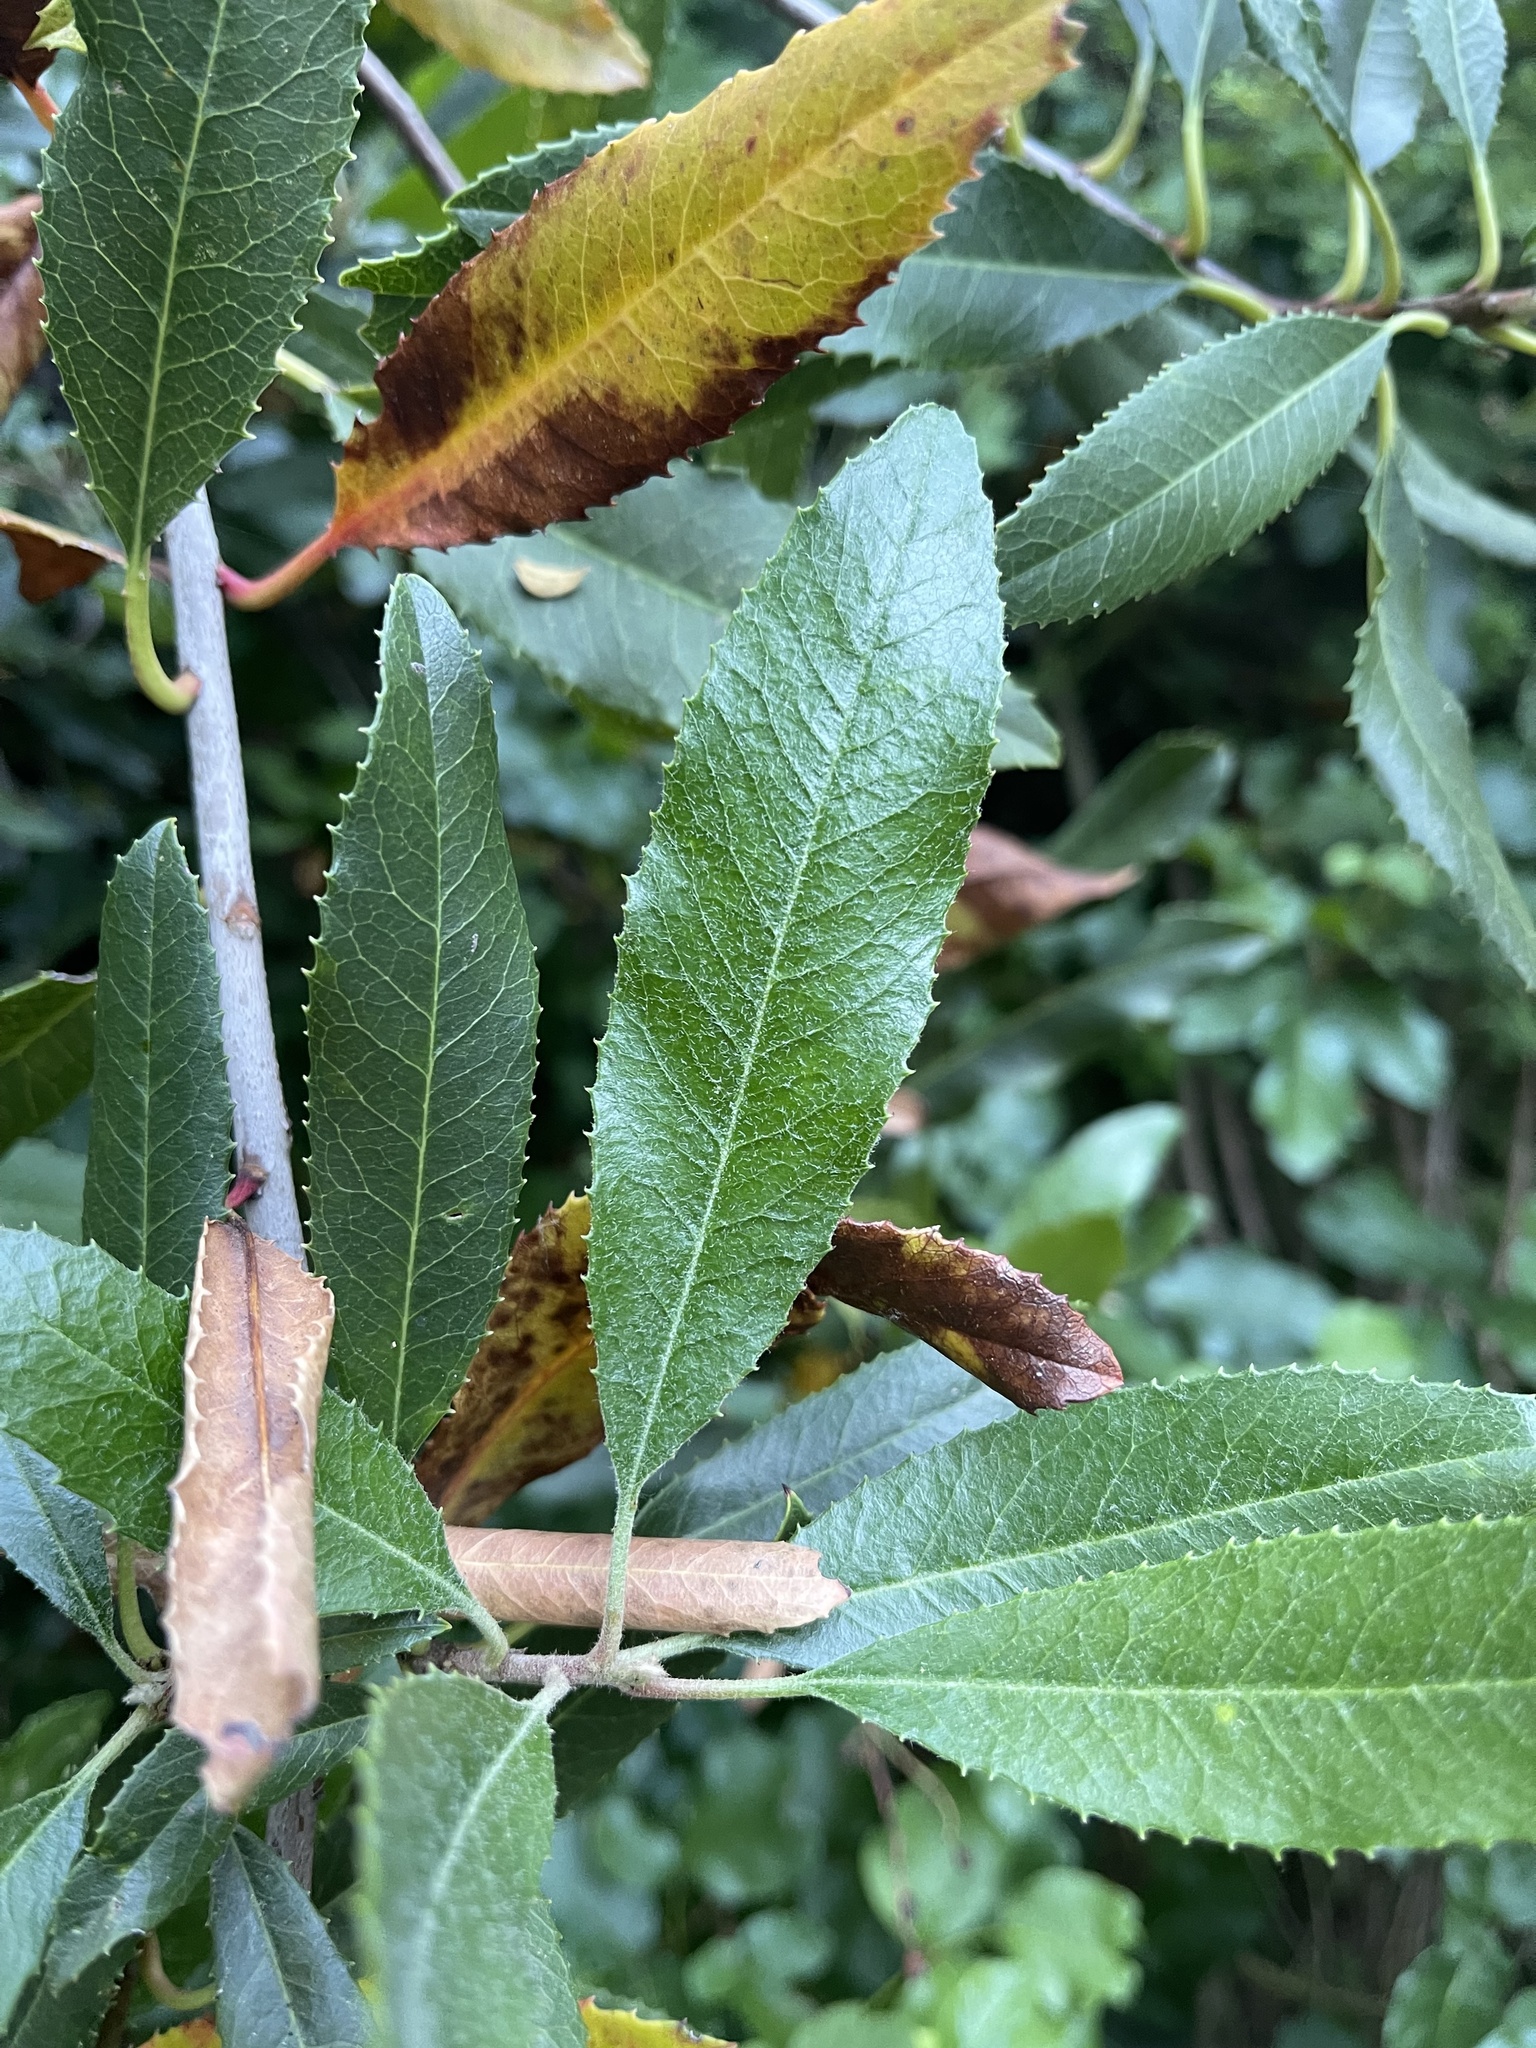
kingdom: Plantae
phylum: Tracheophyta
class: Magnoliopsida
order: Rosales
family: Rosaceae
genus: Heteromeles
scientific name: Heteromeles arbutifolia
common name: California-holly
